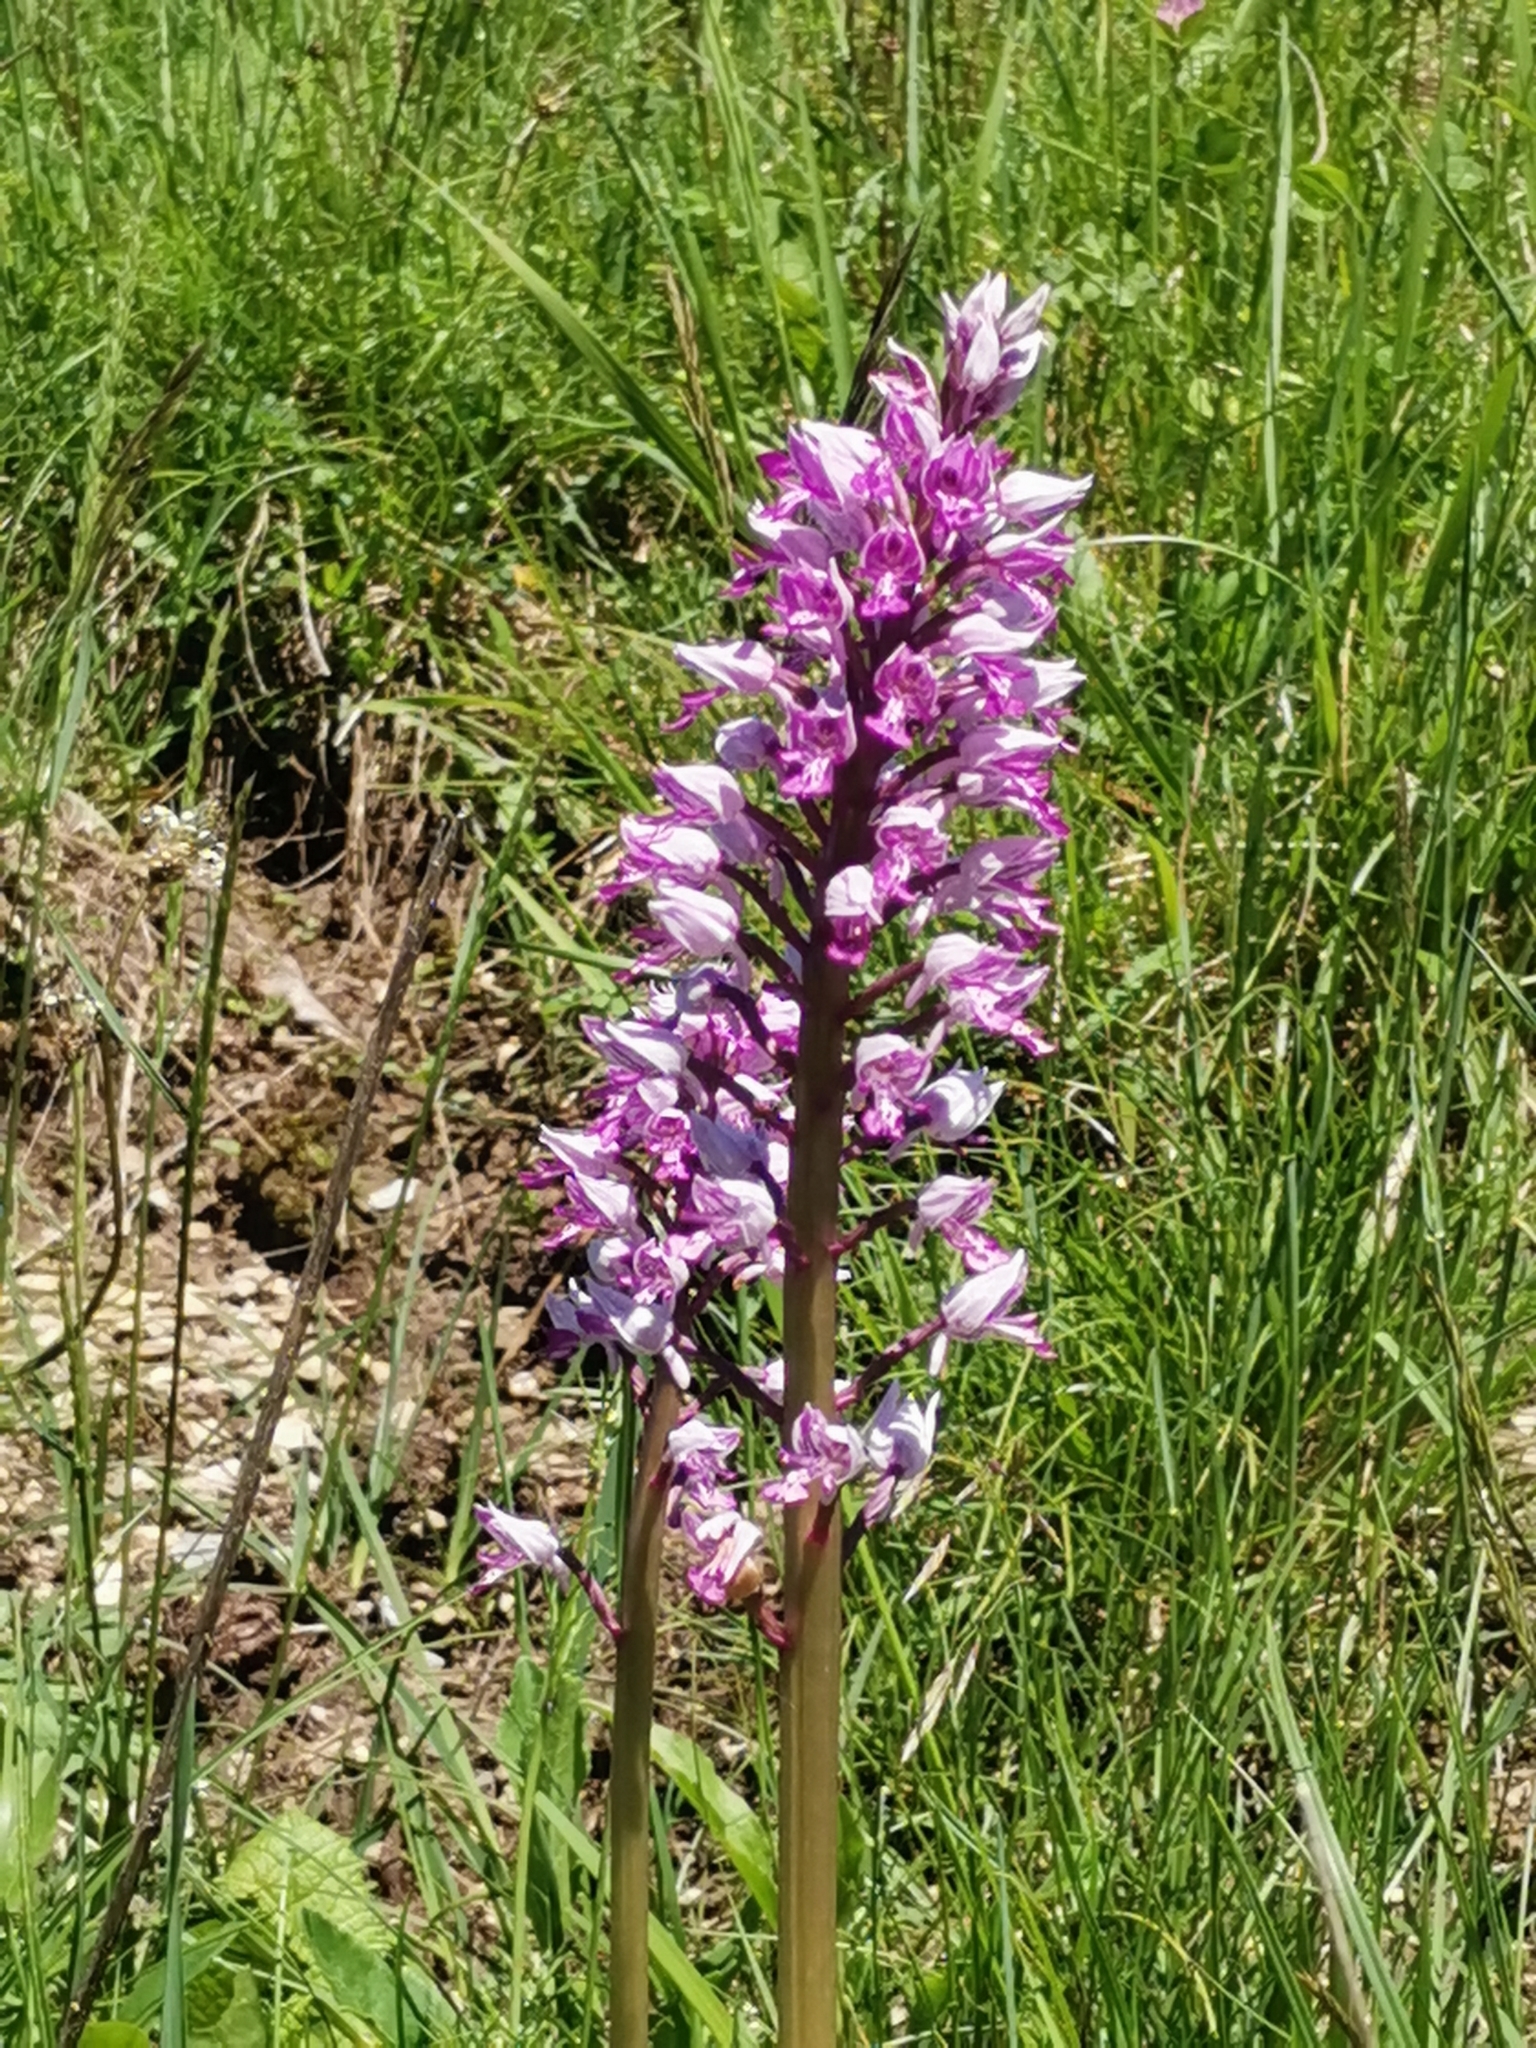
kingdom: Plantae
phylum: Tracheophyta
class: Liliopsida
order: Asparagales
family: Orchidaceae
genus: Orchis
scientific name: Orchis militaris
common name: Military orchid
